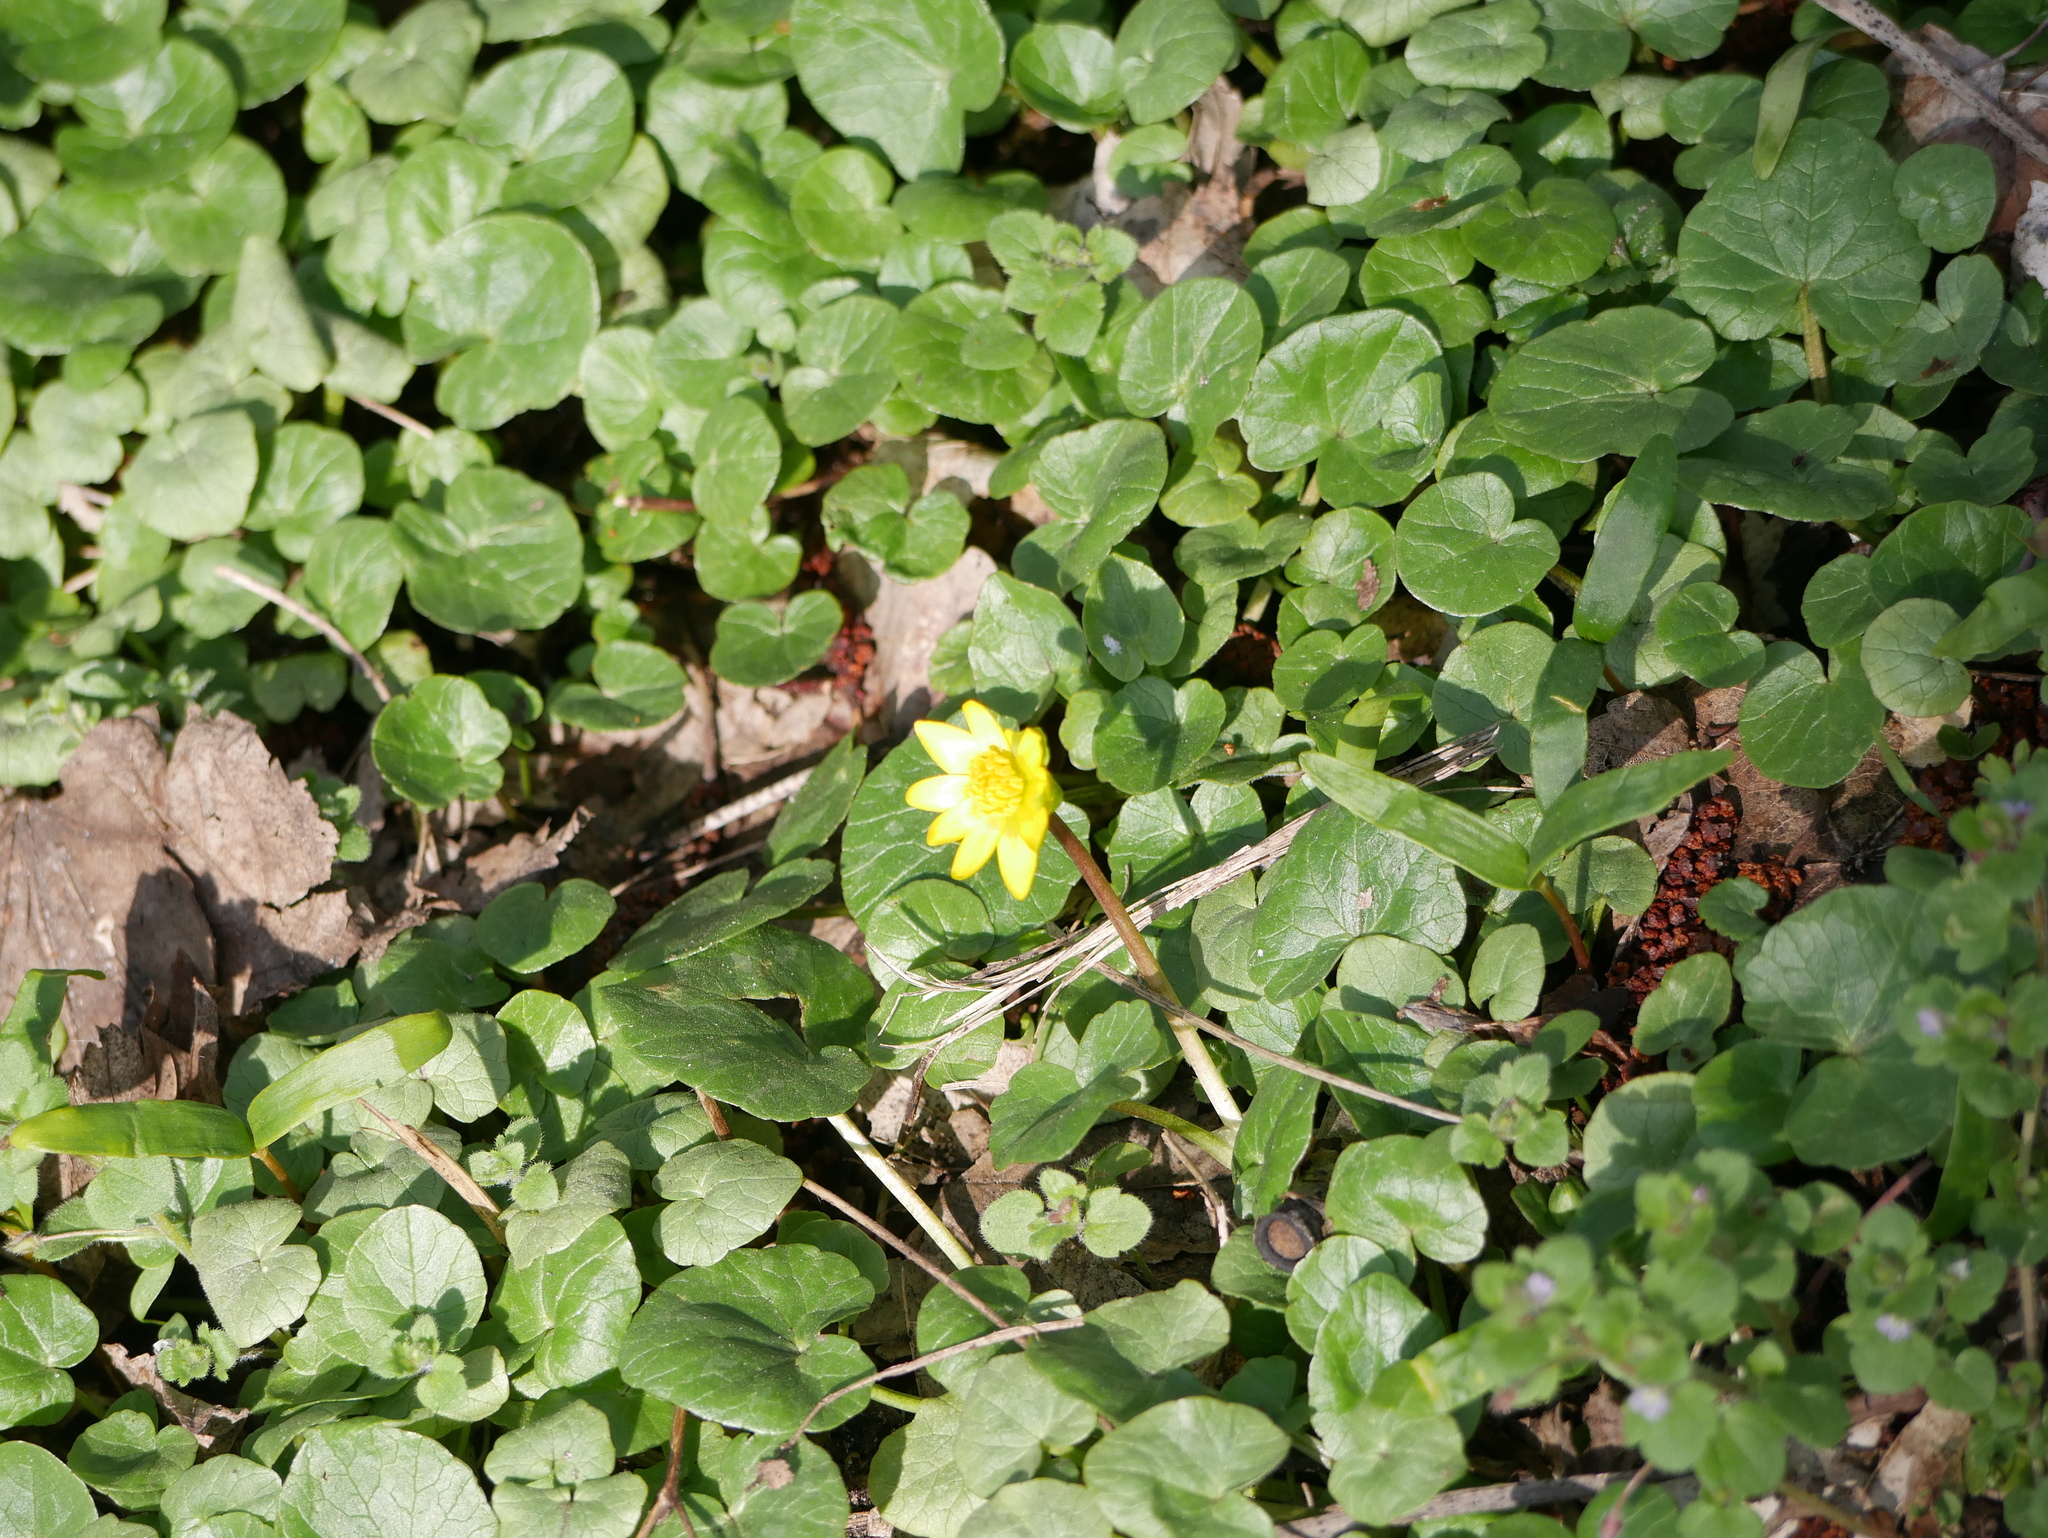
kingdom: Plantae
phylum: Tracheophyta
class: Magnoliopsida
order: Ranunculales
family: Ranunculaceae
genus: Ficaria
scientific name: Ficaria verna
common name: Lesser celandine
